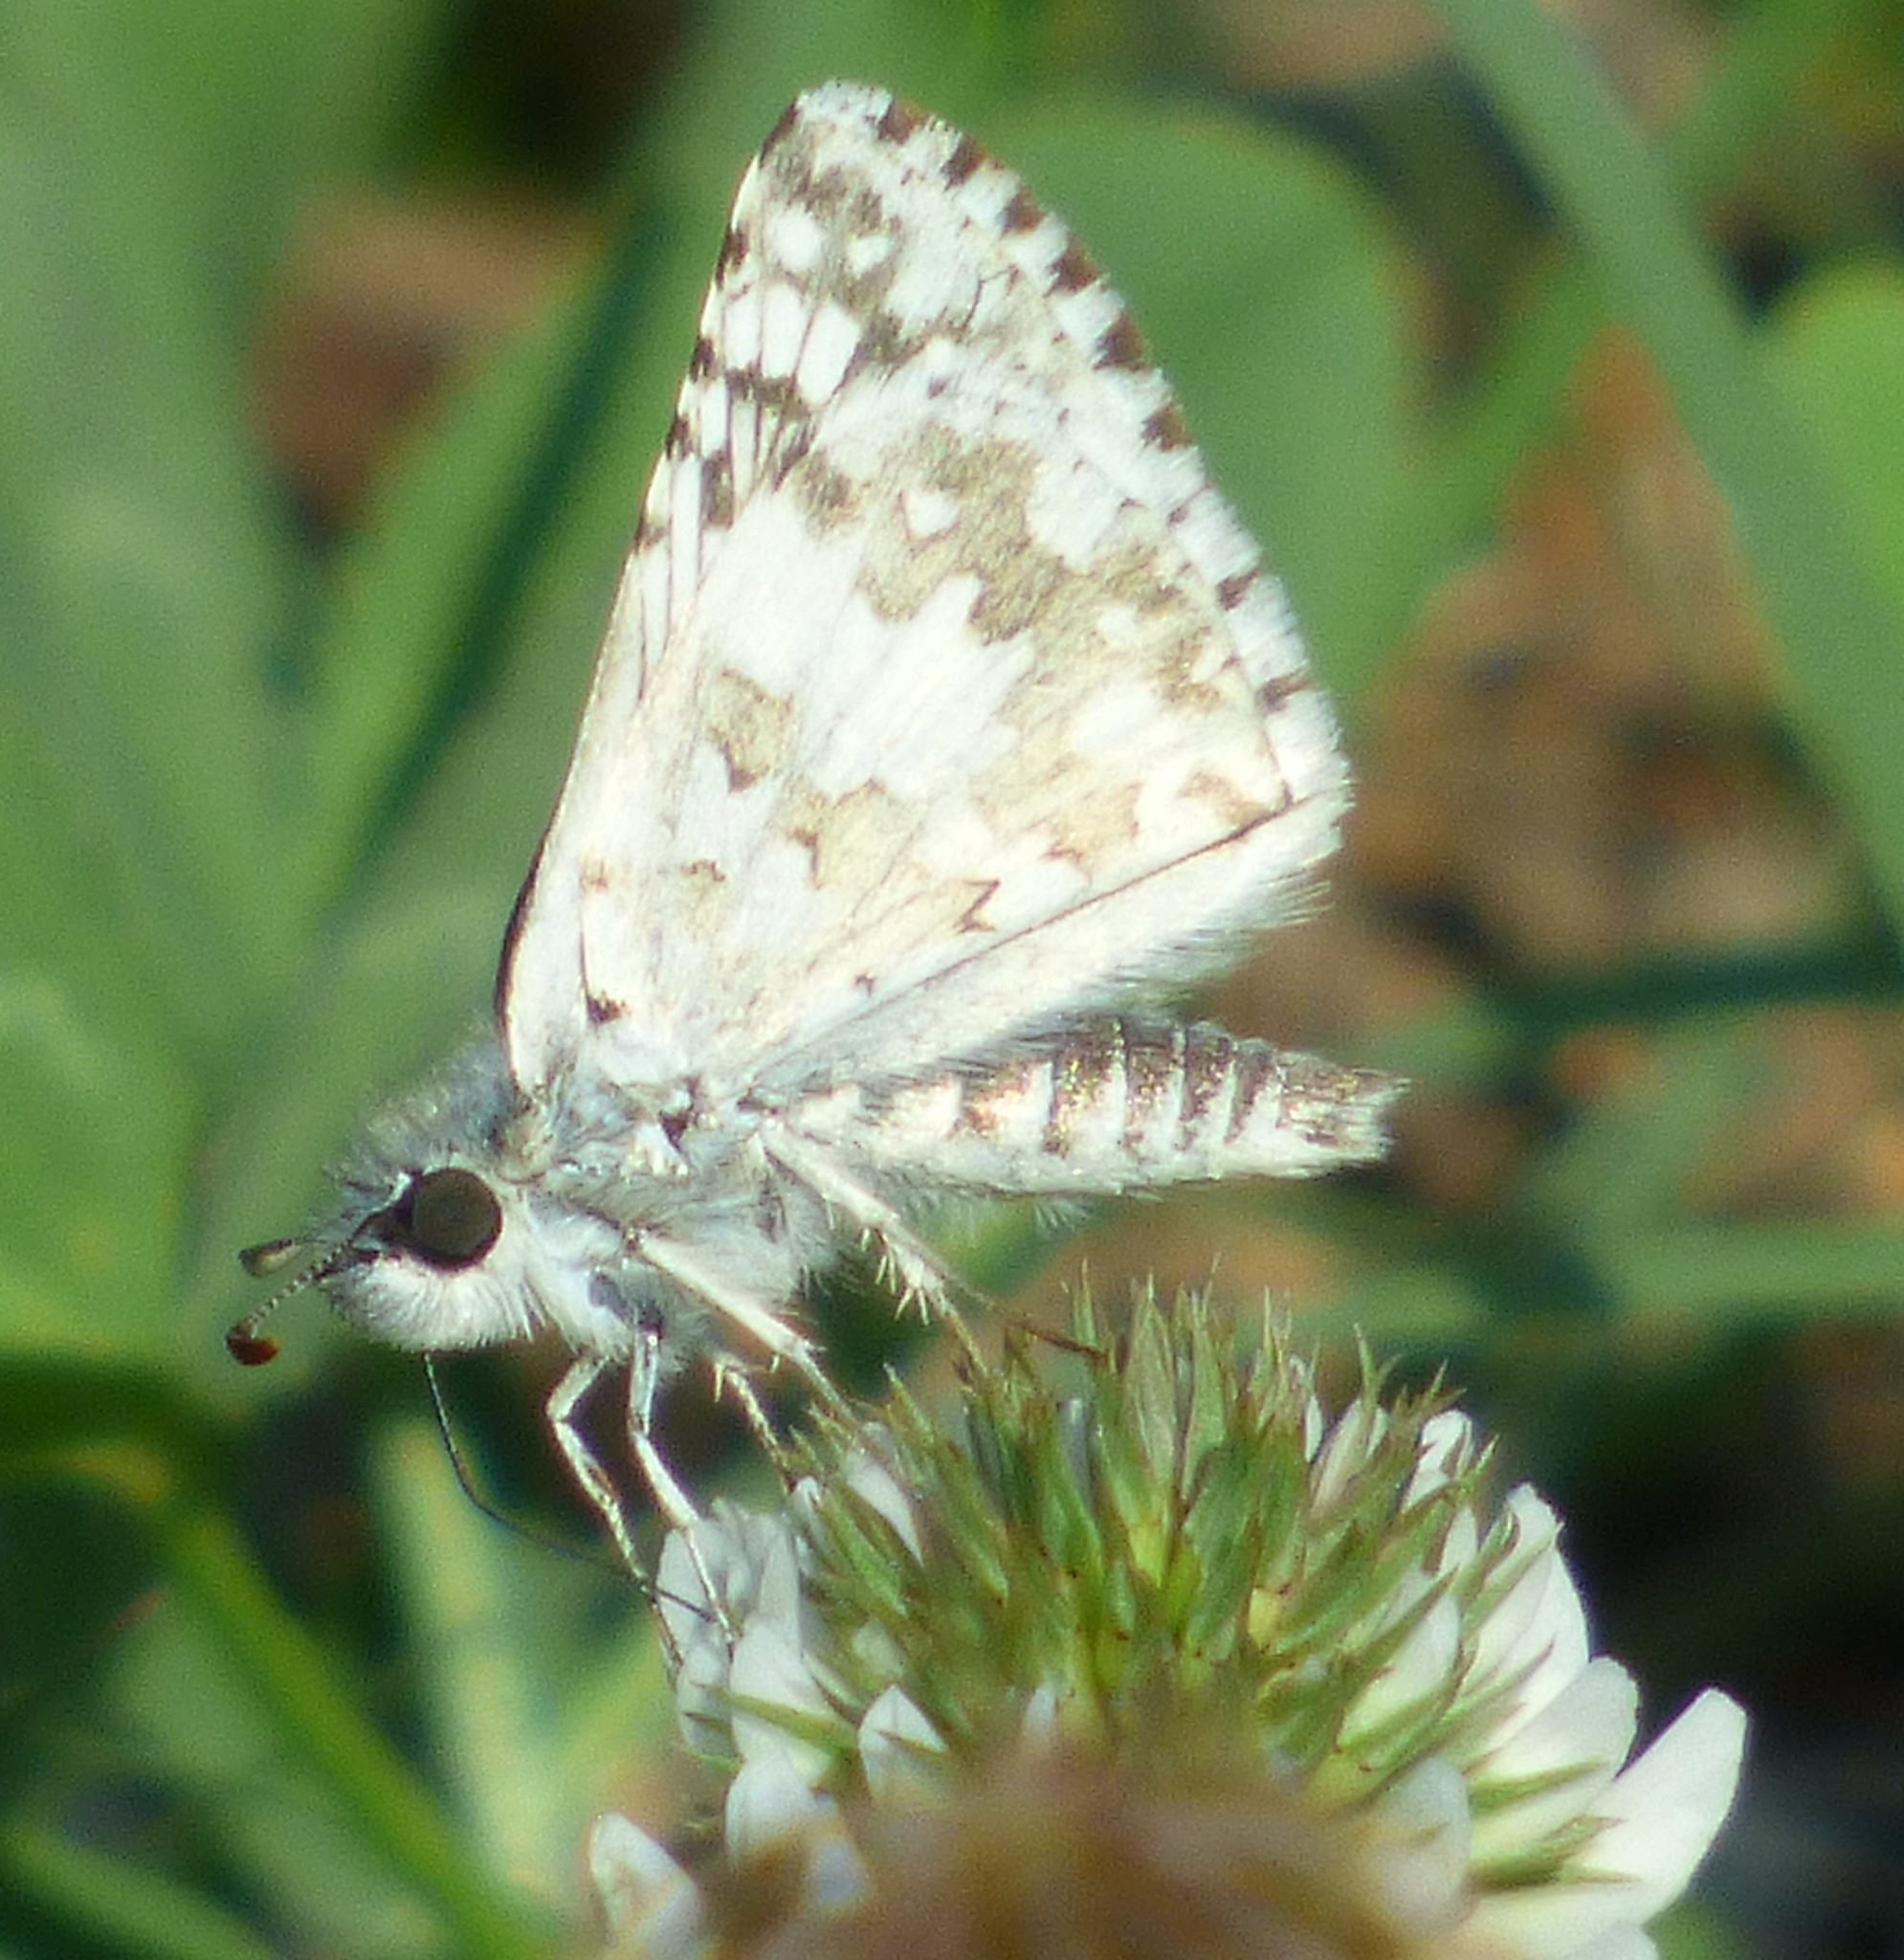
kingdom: Animalia
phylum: Arthropoda
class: Insecta
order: Lepidoptera
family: Hesperiidae
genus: Burnsius
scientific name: Burnsius
